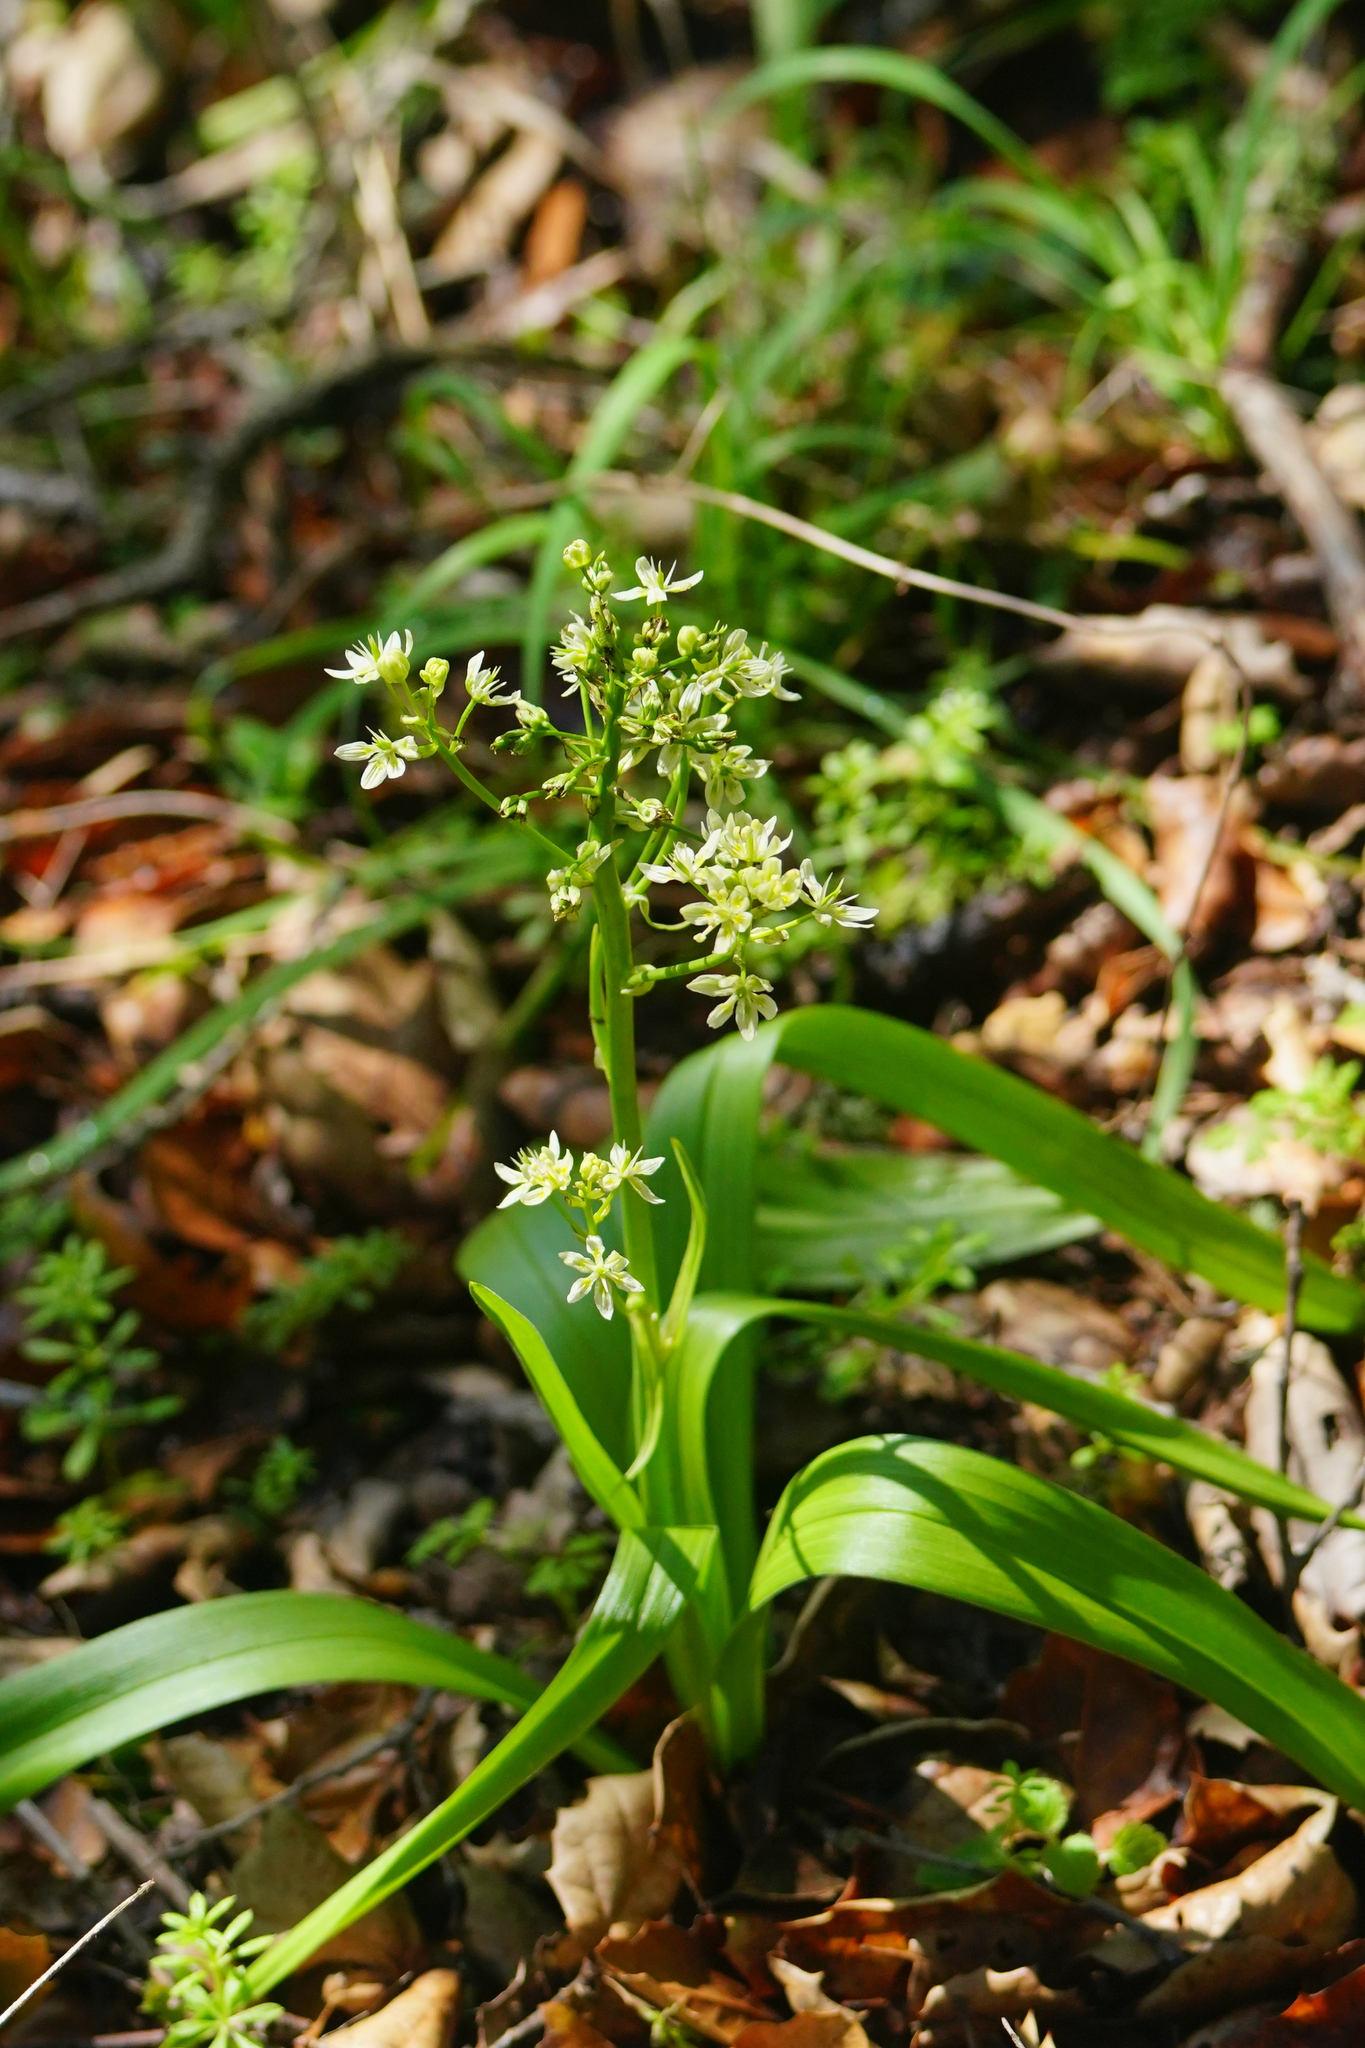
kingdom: Plantae
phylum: Tracheophyta
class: Liliopsida
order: Liliales
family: Melanthiaceae
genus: Toxicoscordion
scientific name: Toxicoscordion fremontii
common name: Fremont's death camas
